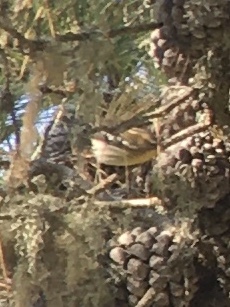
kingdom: Animalia
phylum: Chordata
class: Aves
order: Passeriformes
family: Parulidae
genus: Setophaga
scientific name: Setophaga fusca
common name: Blackburnian warbler
